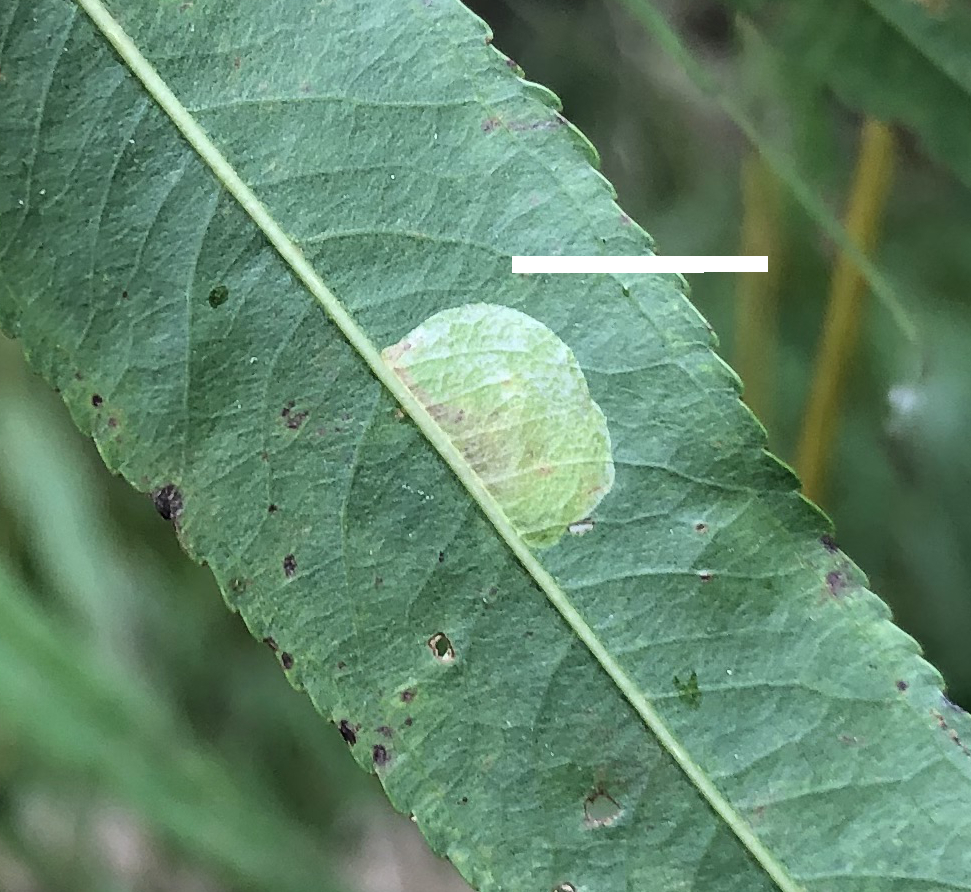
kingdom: Animalia
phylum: Arthropoda
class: Insecta
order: Lepidoptera
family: Gracillariidae
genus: Phyllonorycter
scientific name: Phyllonorycter salicifoliella
